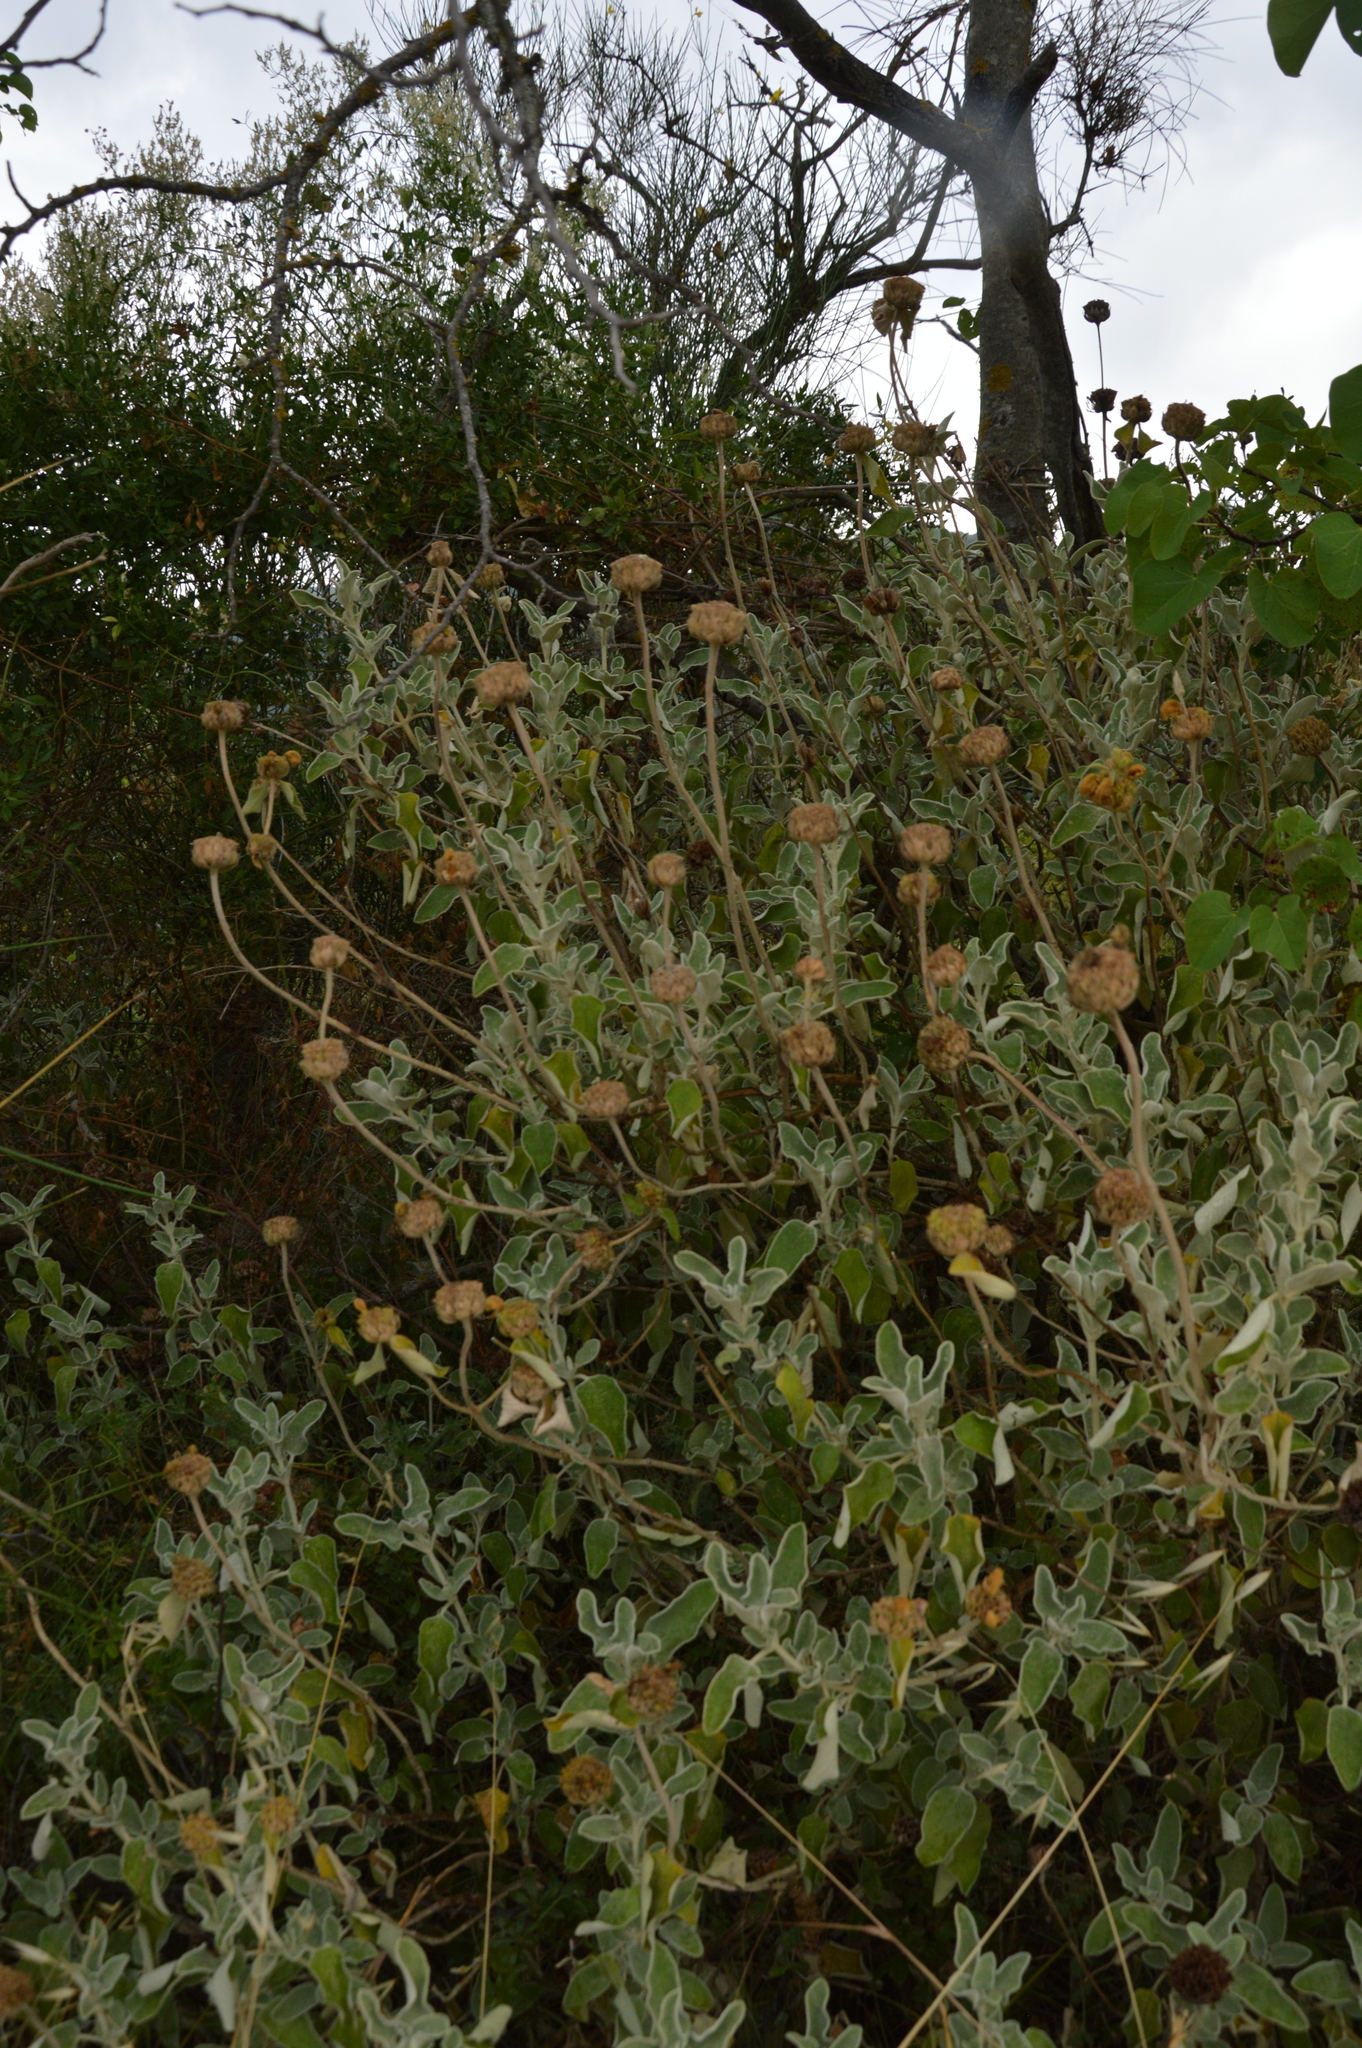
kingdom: Plantae
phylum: Tracheophyta
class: Magnoliopsida
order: Lamiales
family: Lamiaceae
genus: Phlomis
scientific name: Phlomis fruticosa
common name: Jerusalem sage
